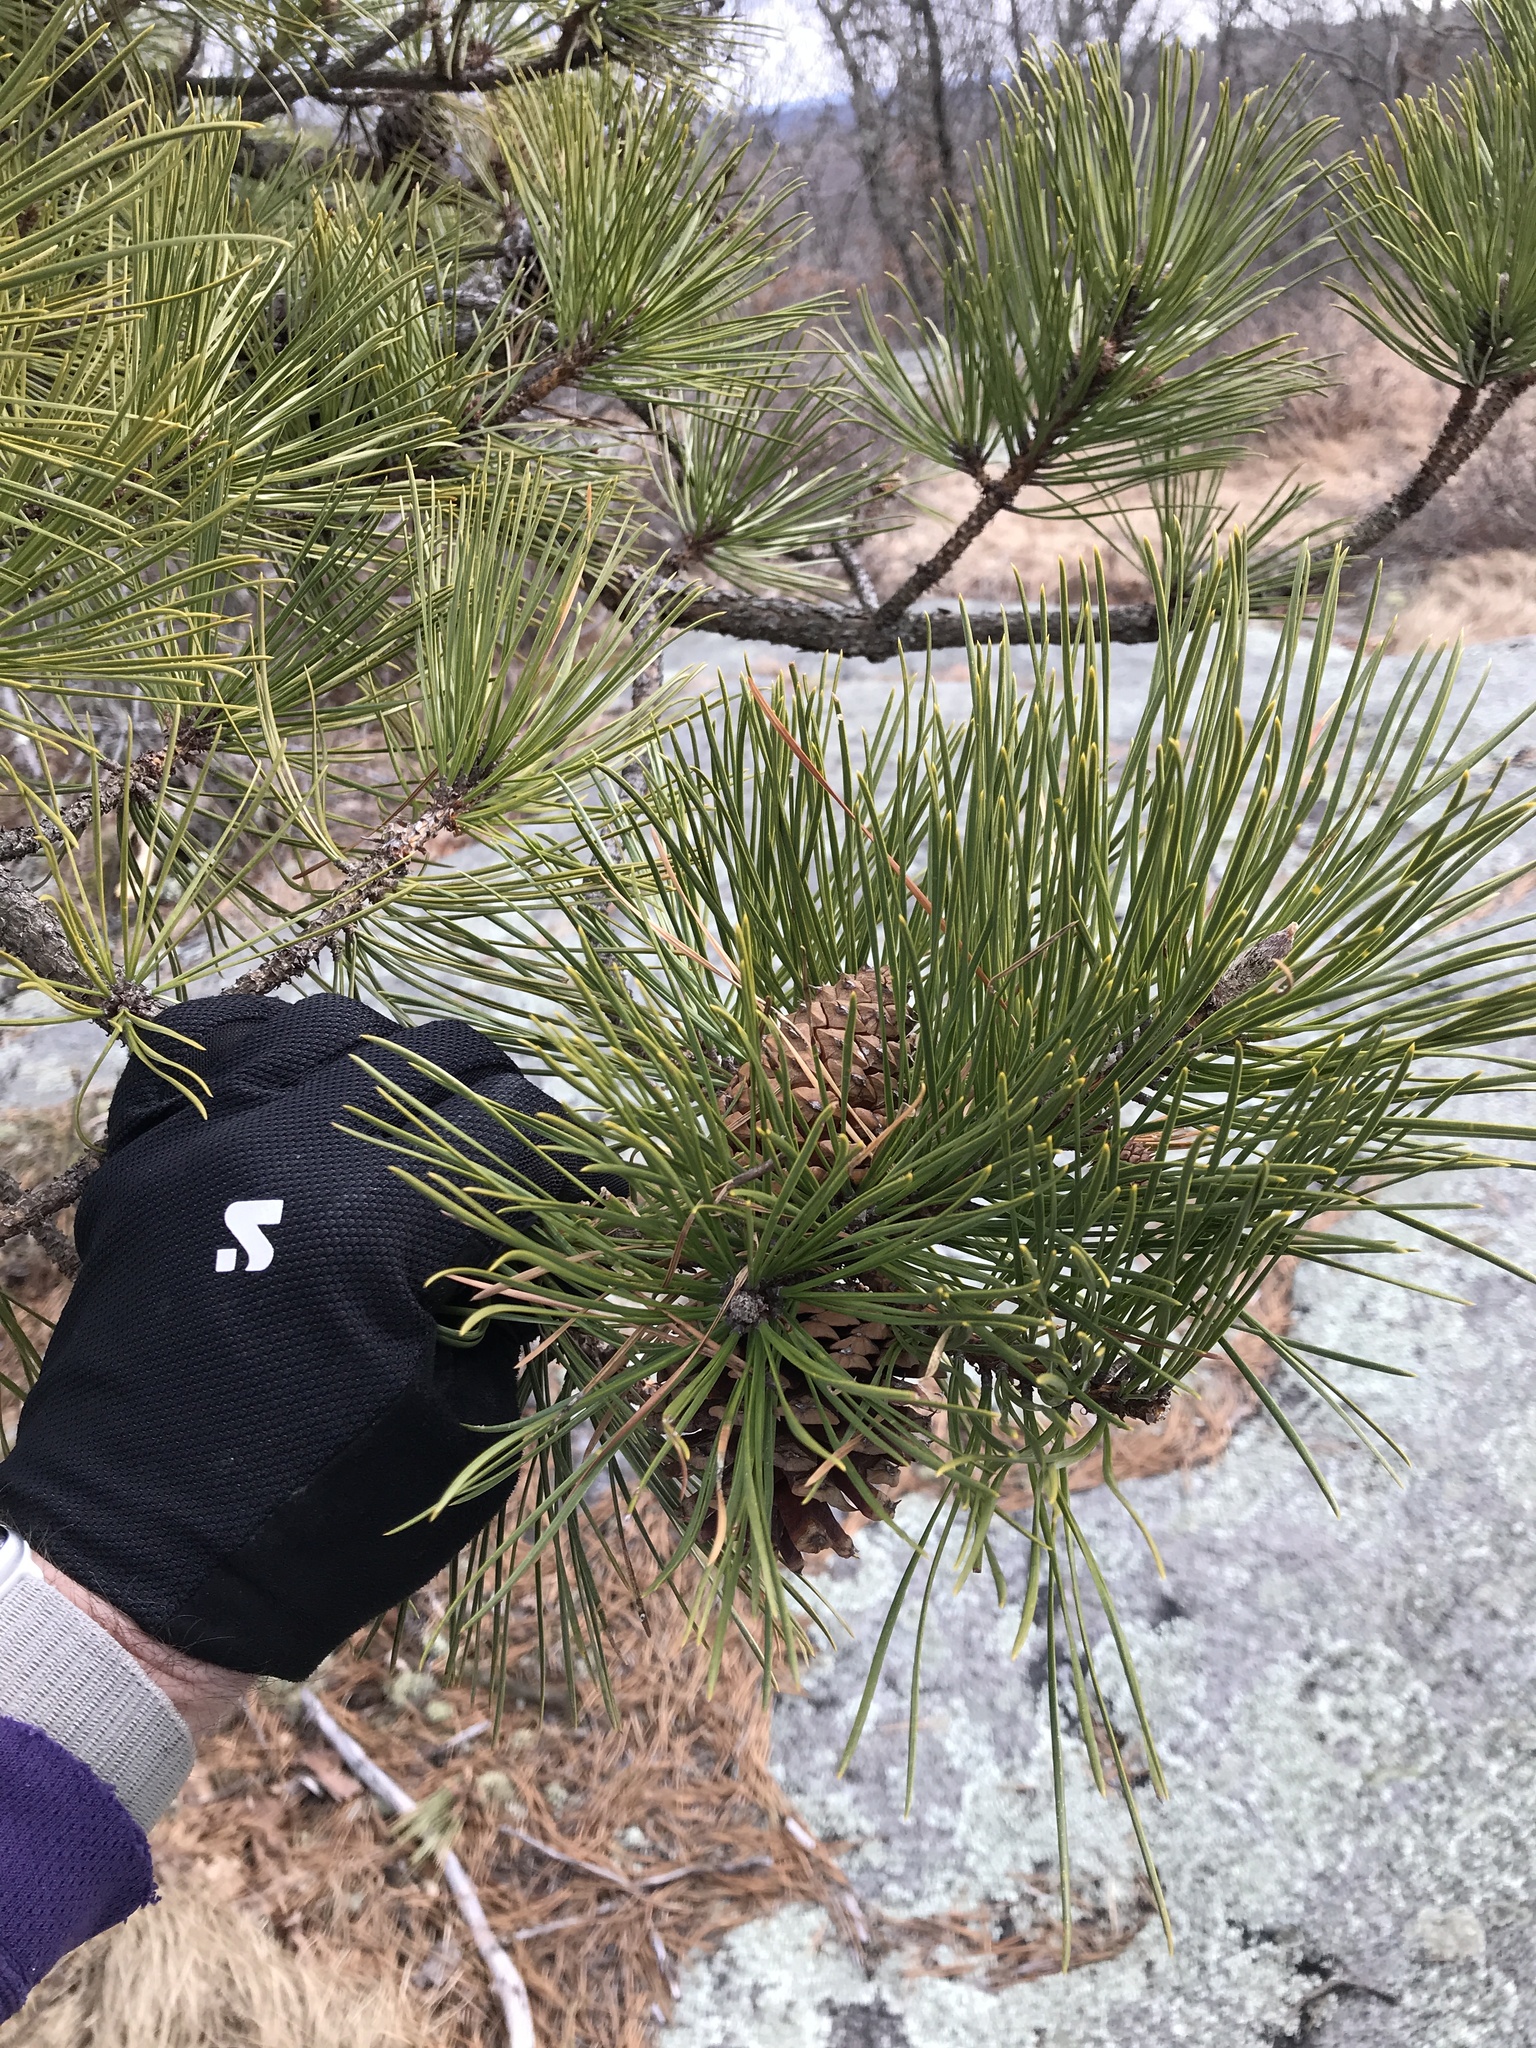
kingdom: Plantae
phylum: Tracheophyta
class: Pinopsida
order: Pinales
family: Pinaceae
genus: Pinus
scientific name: Pinus rigida
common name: Pitch pine
